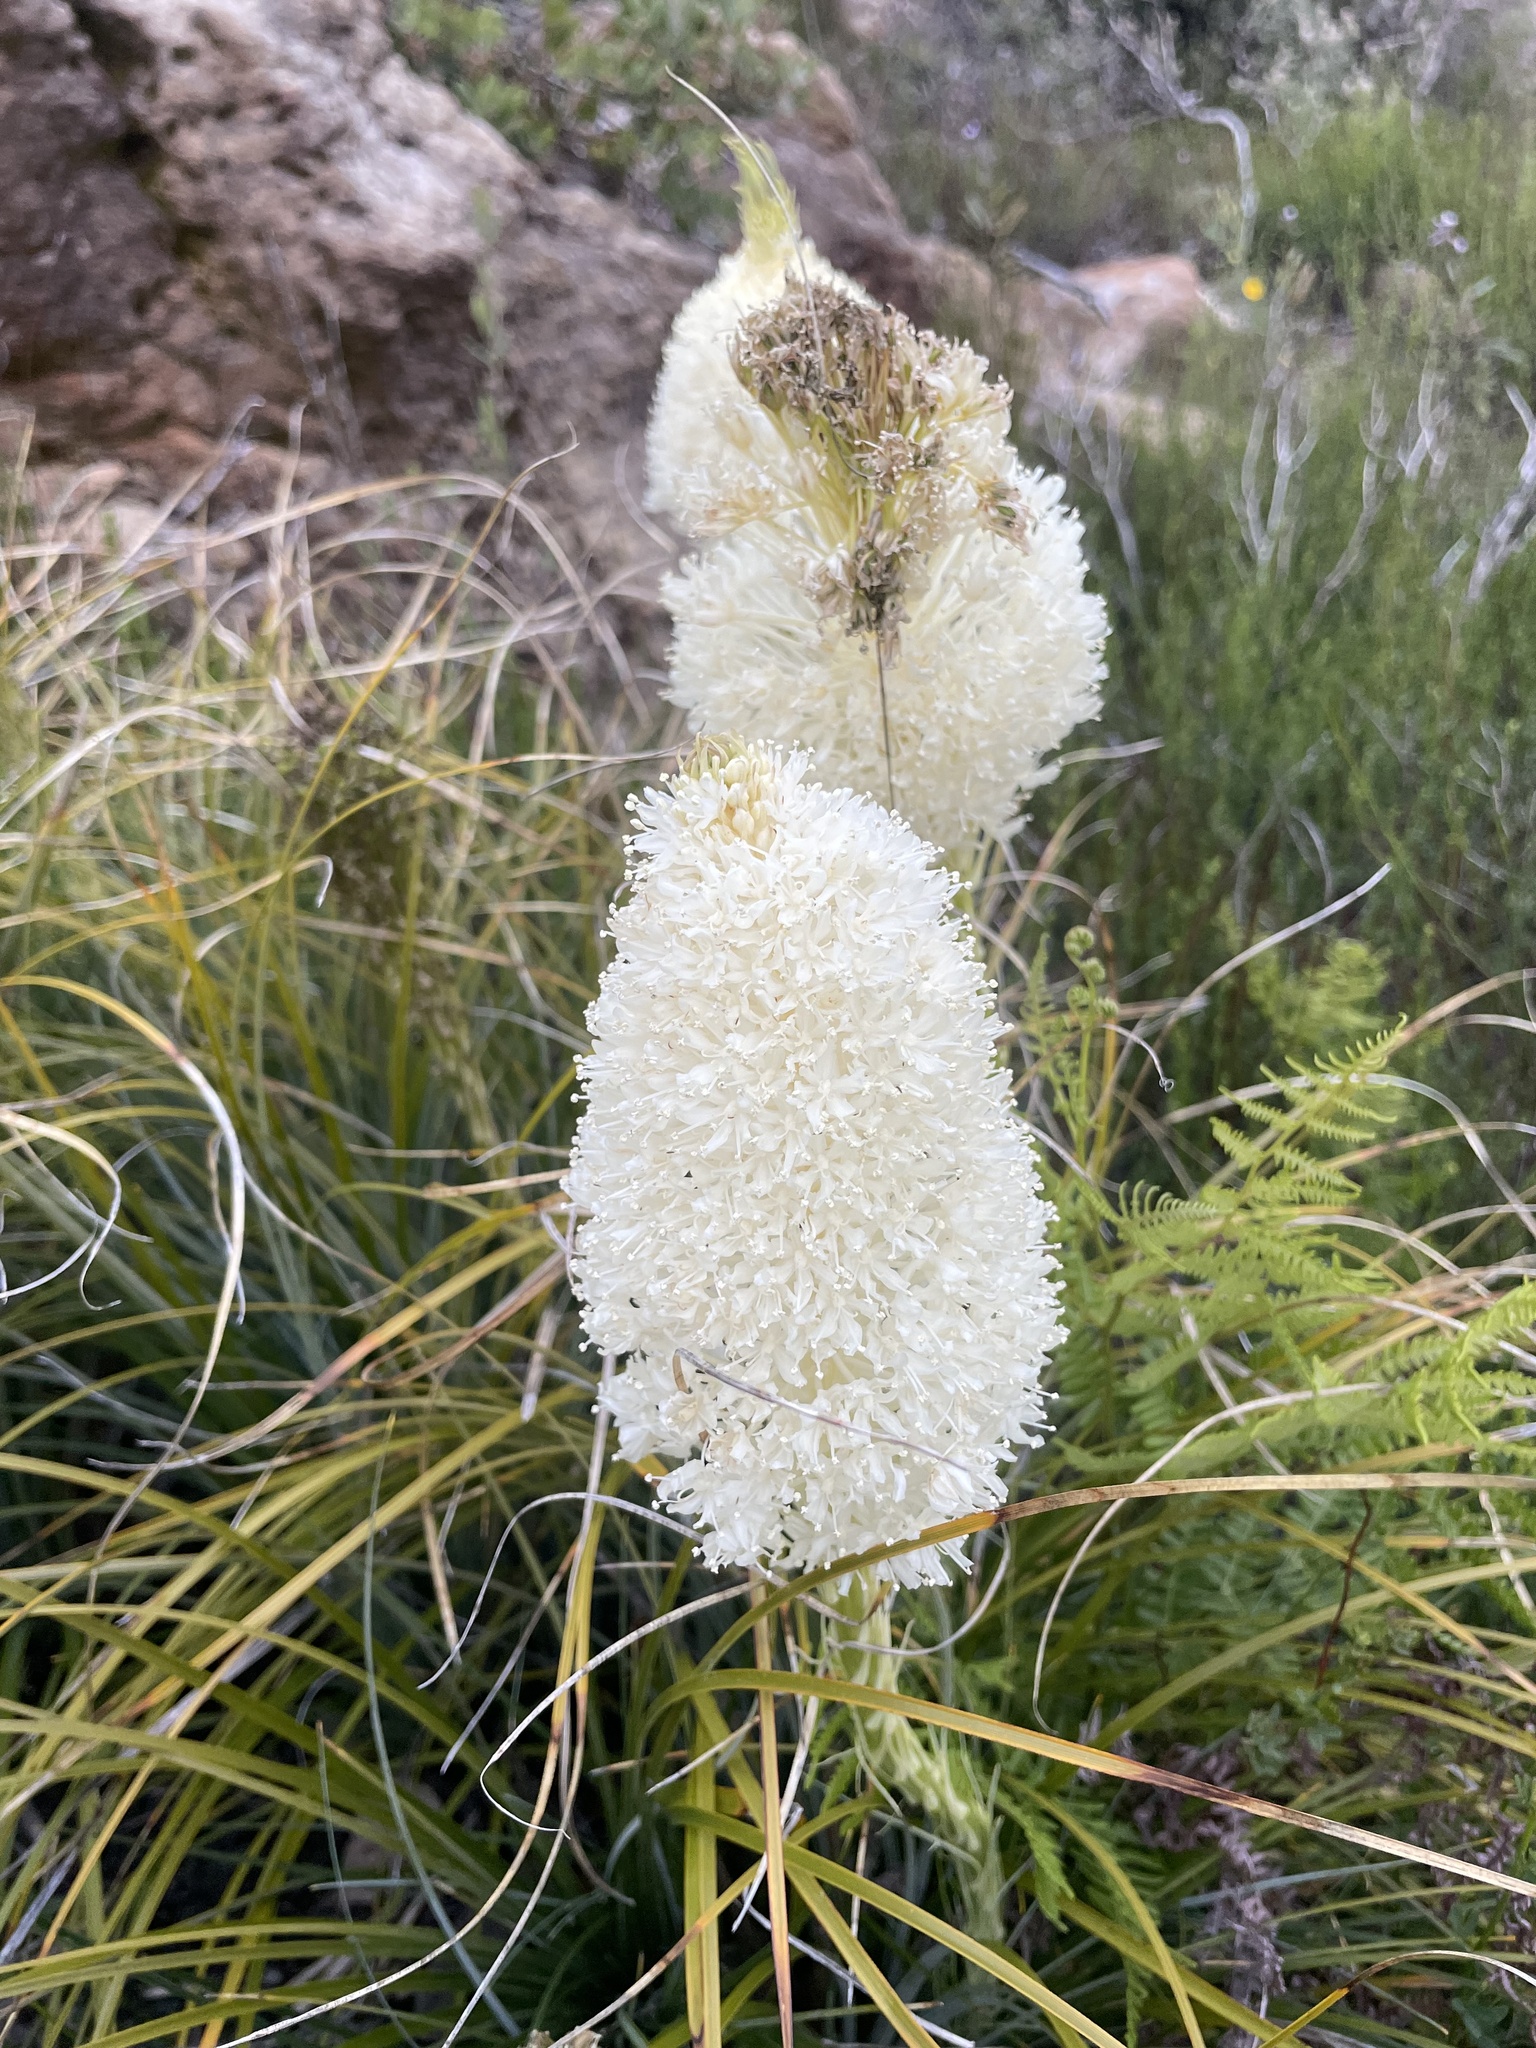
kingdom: Plantae
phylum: Tracheophyta
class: Liliopsida
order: Liliales
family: Melanthiaceae
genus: Xerophyllum
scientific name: Xerophyllum tenax
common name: Bear-grass
